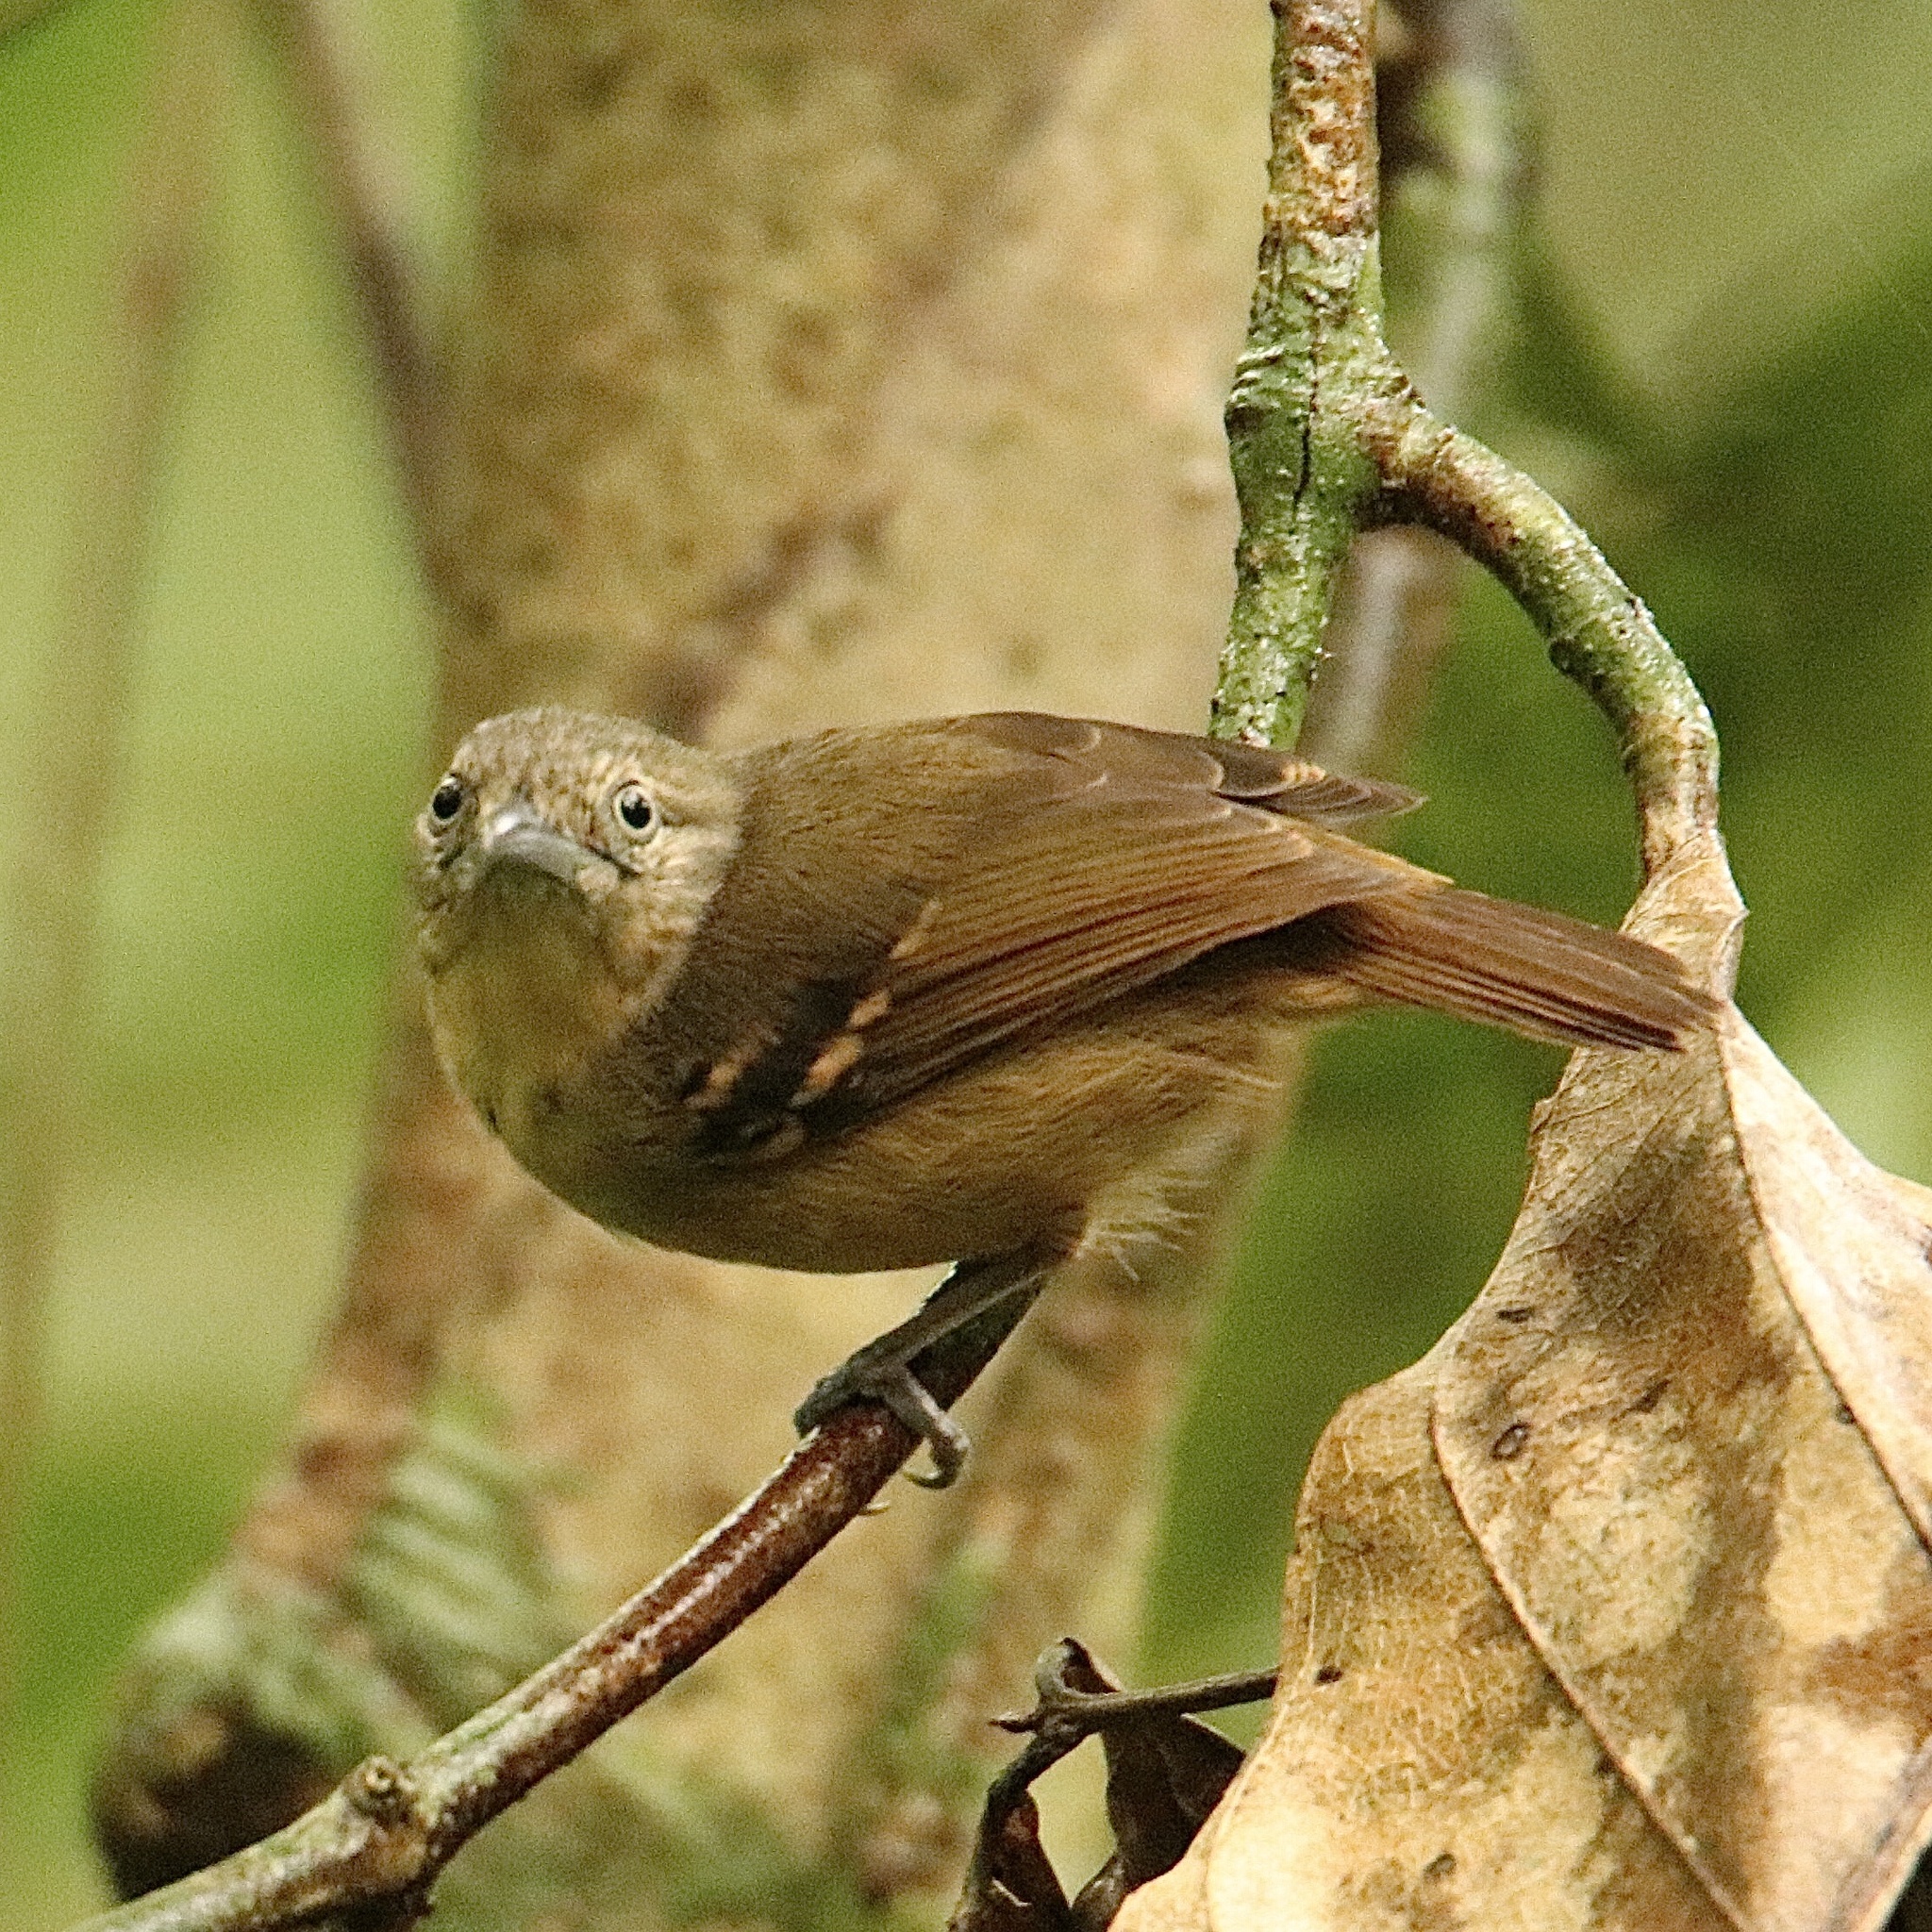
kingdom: Animalia
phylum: Chordata
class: Aves
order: Passeriformes
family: Thamnophilidae
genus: Epinecrophylla
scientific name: Epinecrophylla fulviventris
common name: Checker-throated antwren
